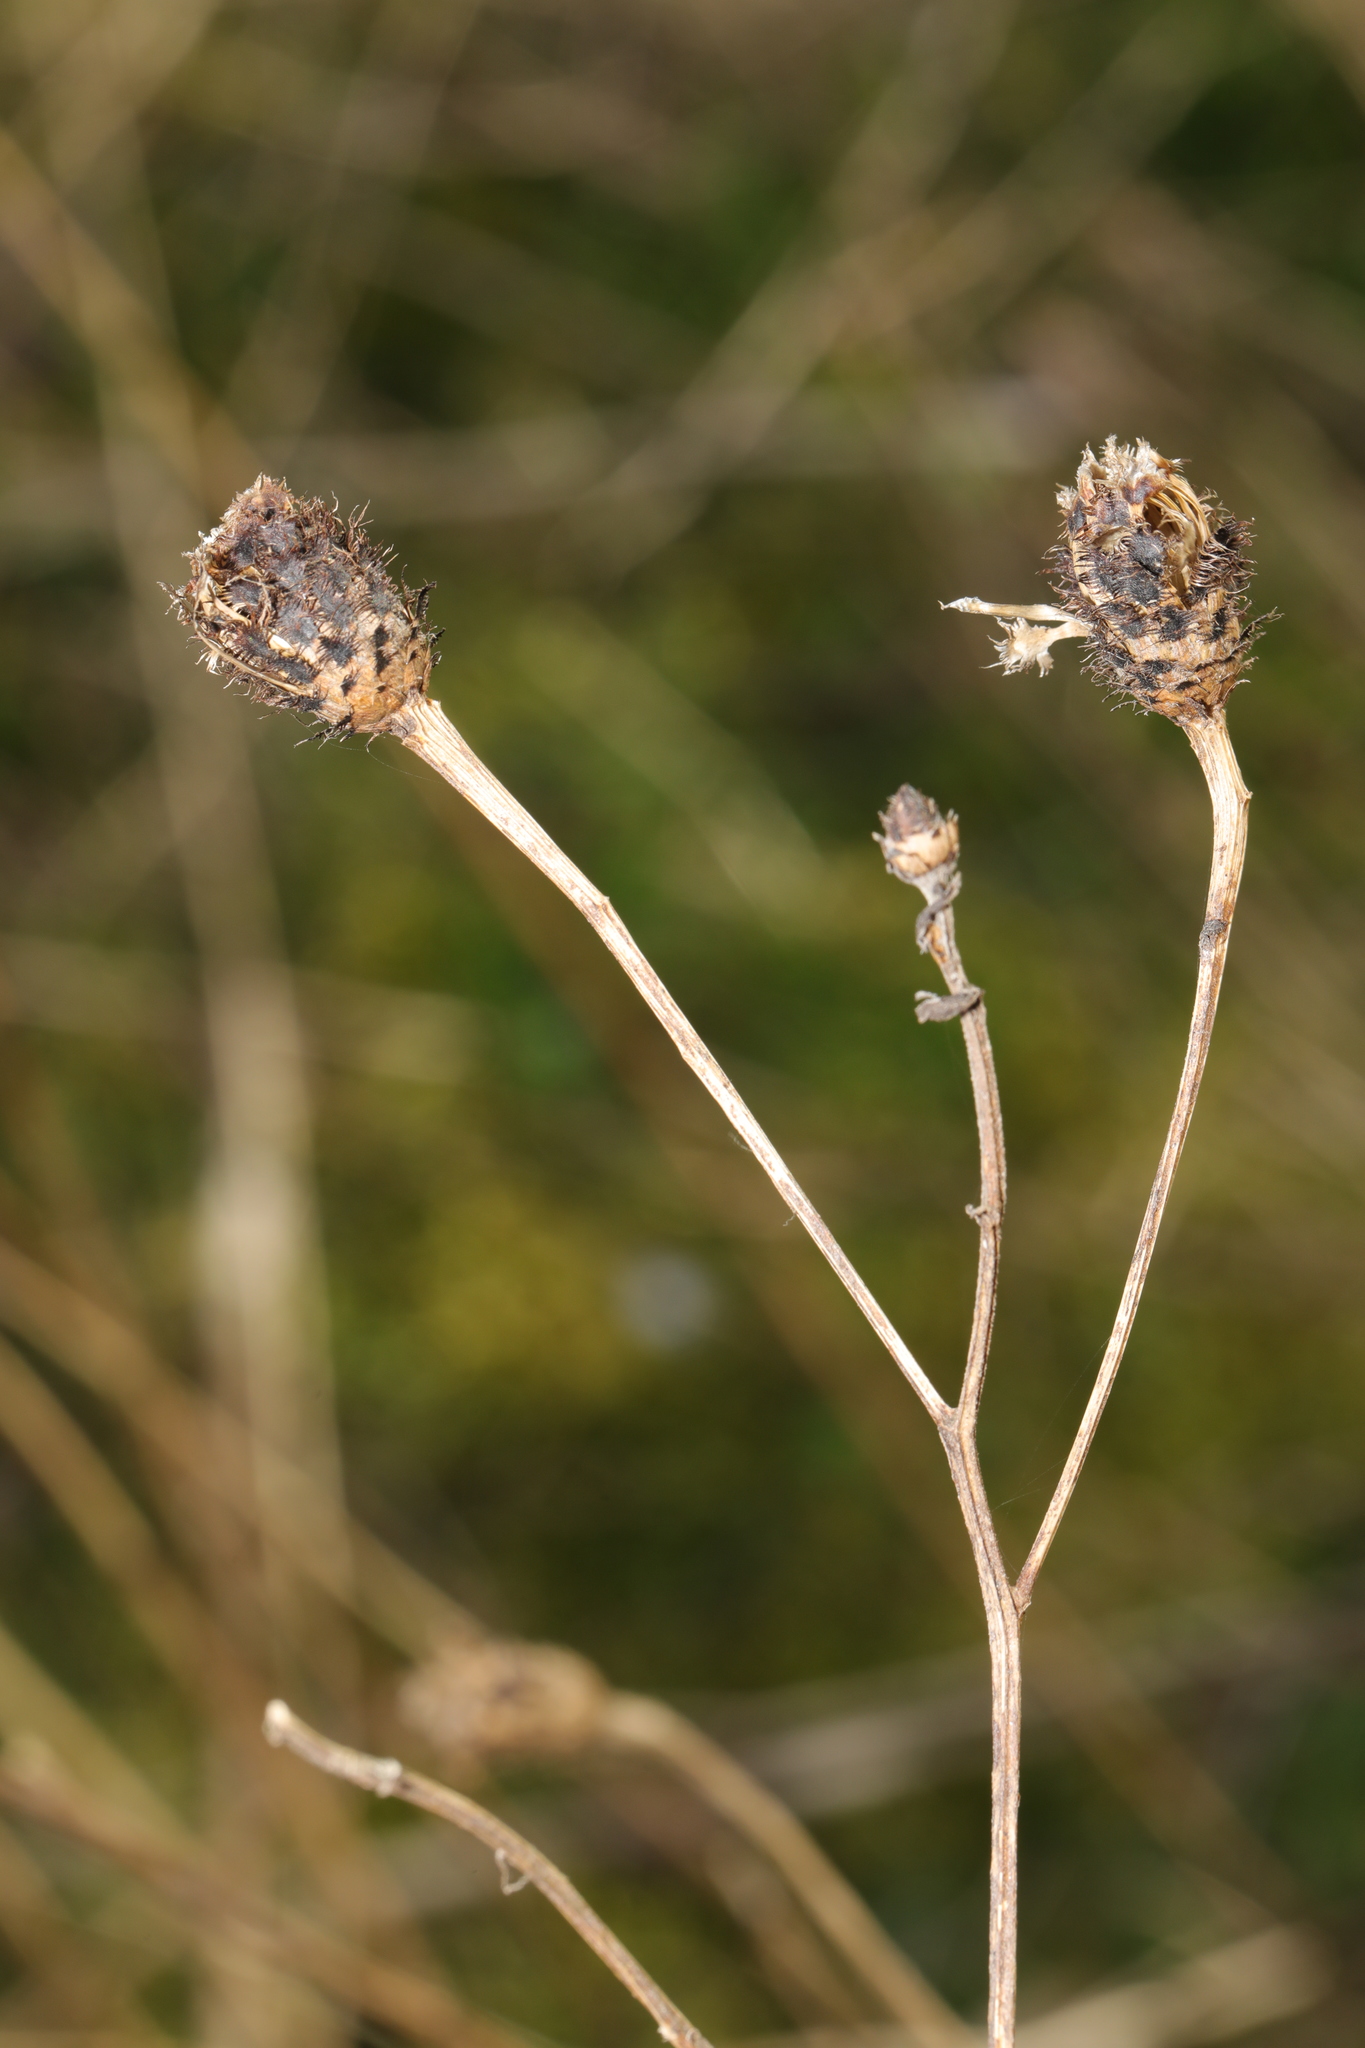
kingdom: Plantae
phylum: Tracheophyta
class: Magnoliopsida
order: Asterales
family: Asteraceae
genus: Centaurea
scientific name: Centaurea nigra
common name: Lesser knapweed
